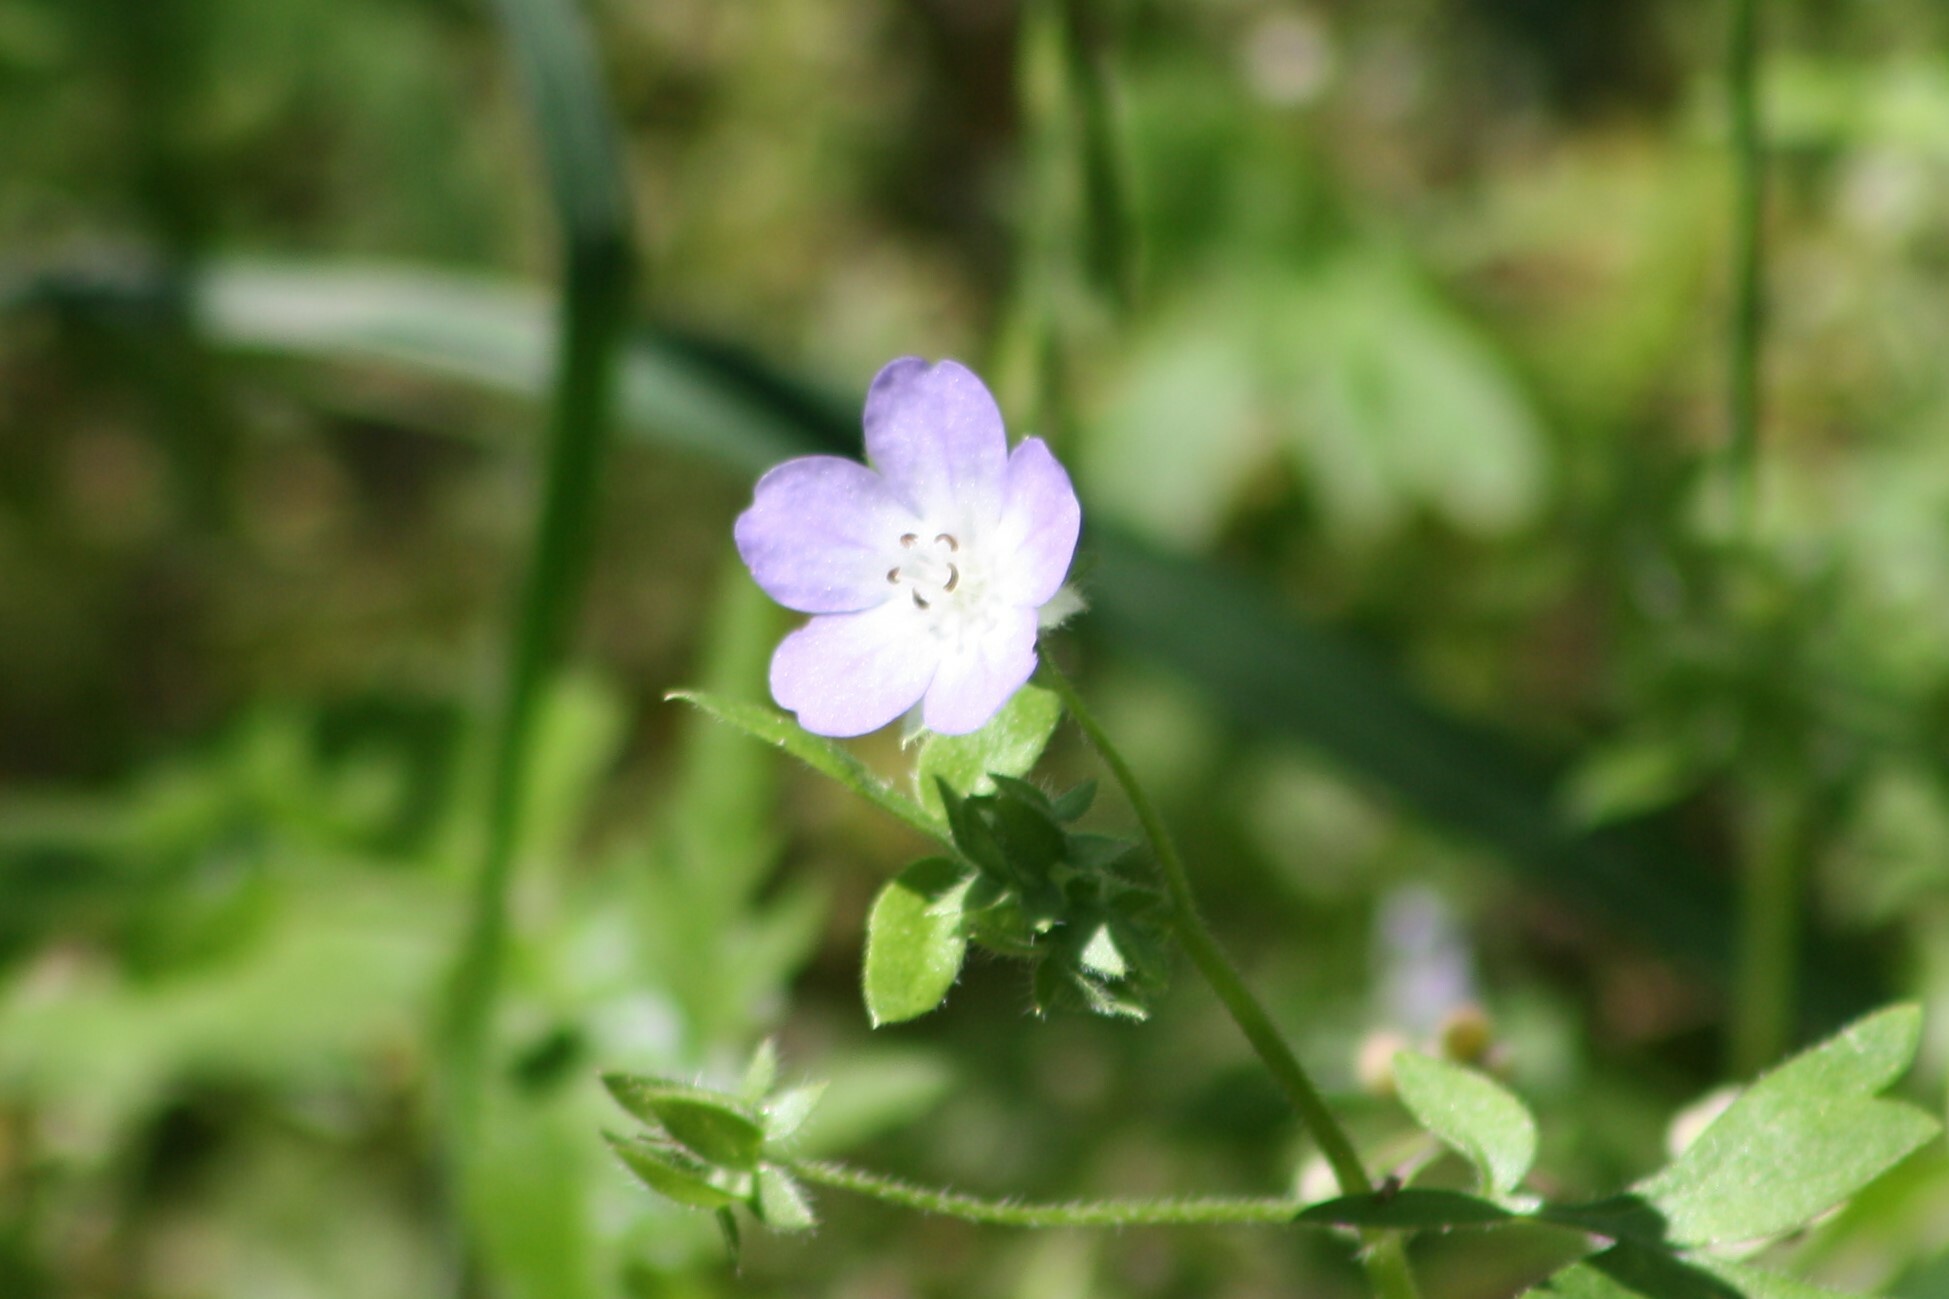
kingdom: Plantae
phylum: Tracheophyta
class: Magnoliopsida
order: Boraginales
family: Hydrophyllaceae
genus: Nemophila
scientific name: Nemophila phacelioides
